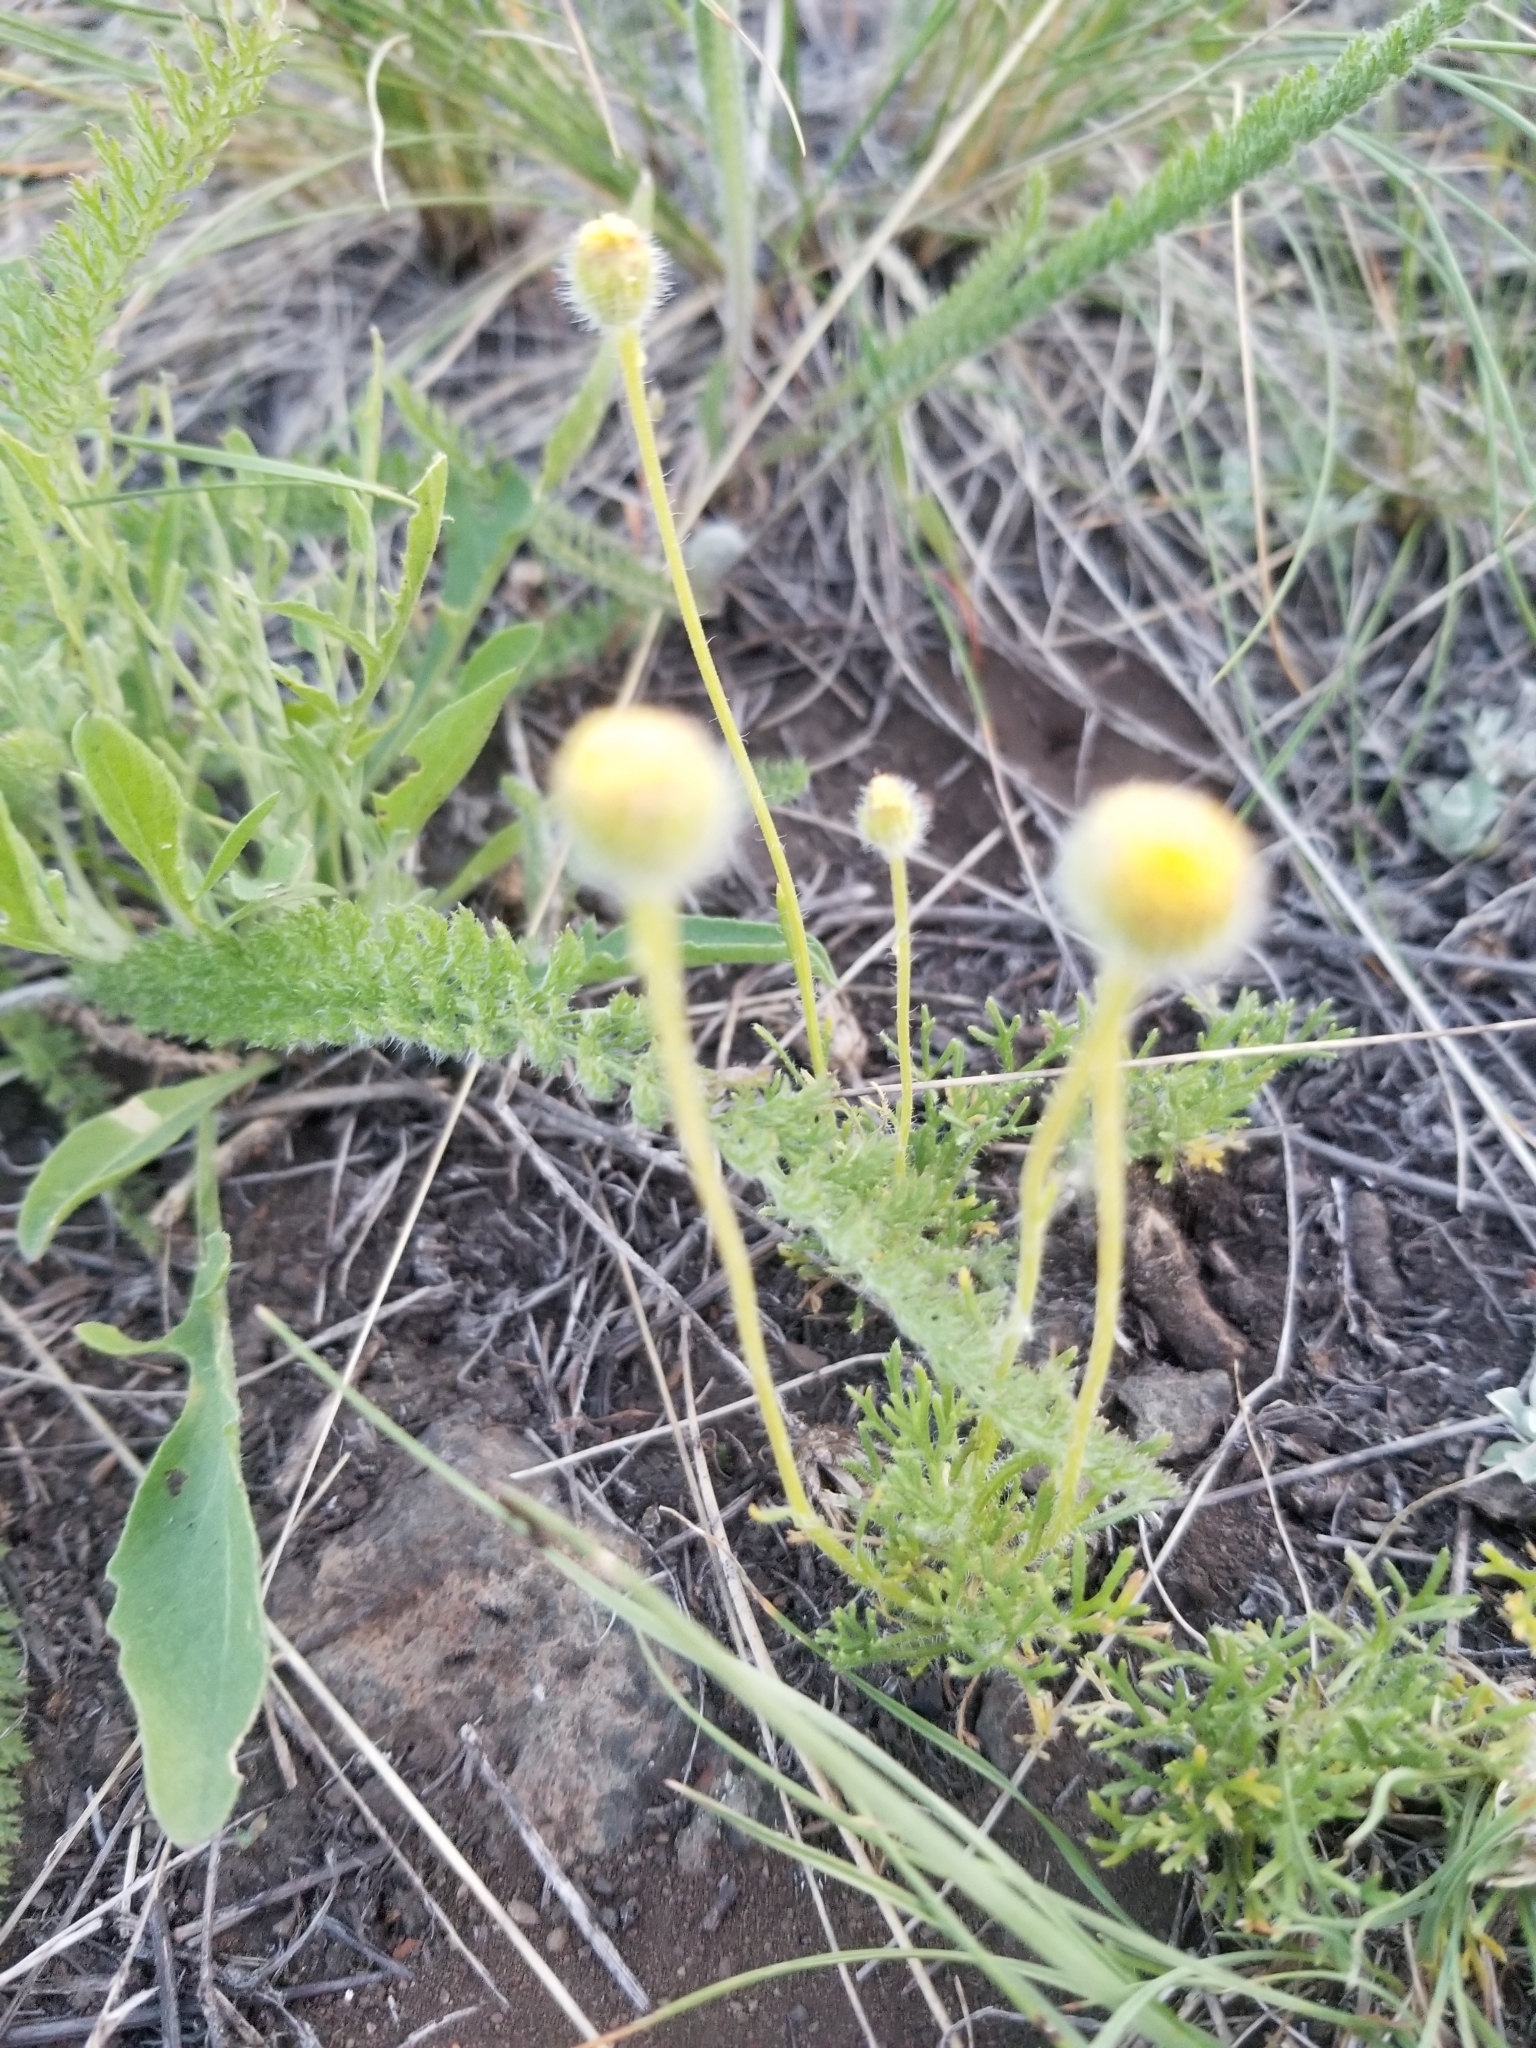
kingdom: Plantae
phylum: Tracheophyta
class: Magnoliopsida
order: Asterales
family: Asteraceae
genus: Erigeron
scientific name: Erigeron compositus
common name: Dwarf mountain fleabane
